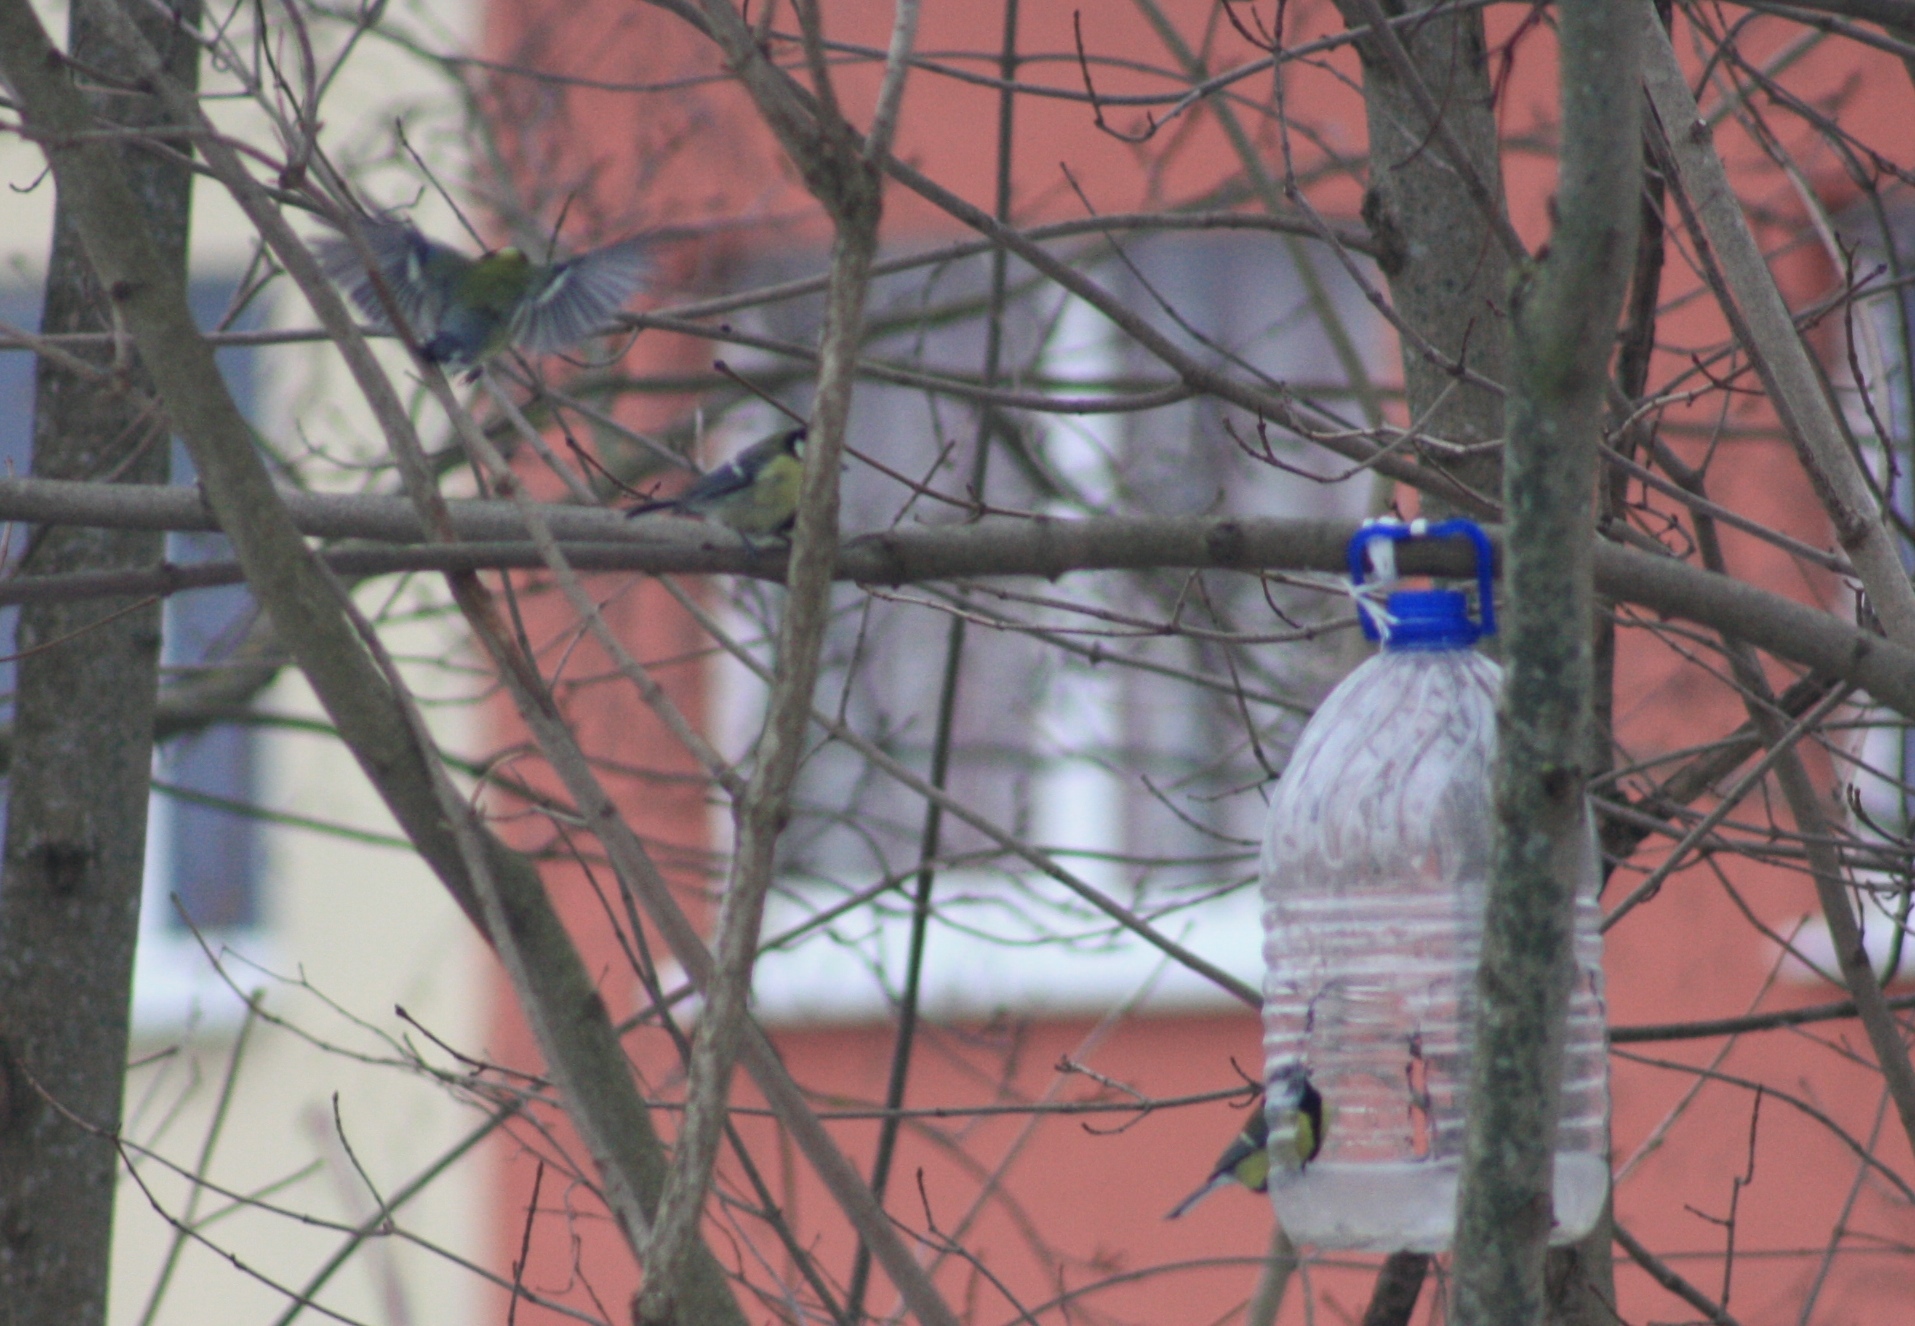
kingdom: Animalia
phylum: Chordata
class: Aves
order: Passeriformes
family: Paridae
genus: Parus
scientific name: Parus major
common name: Great tit
